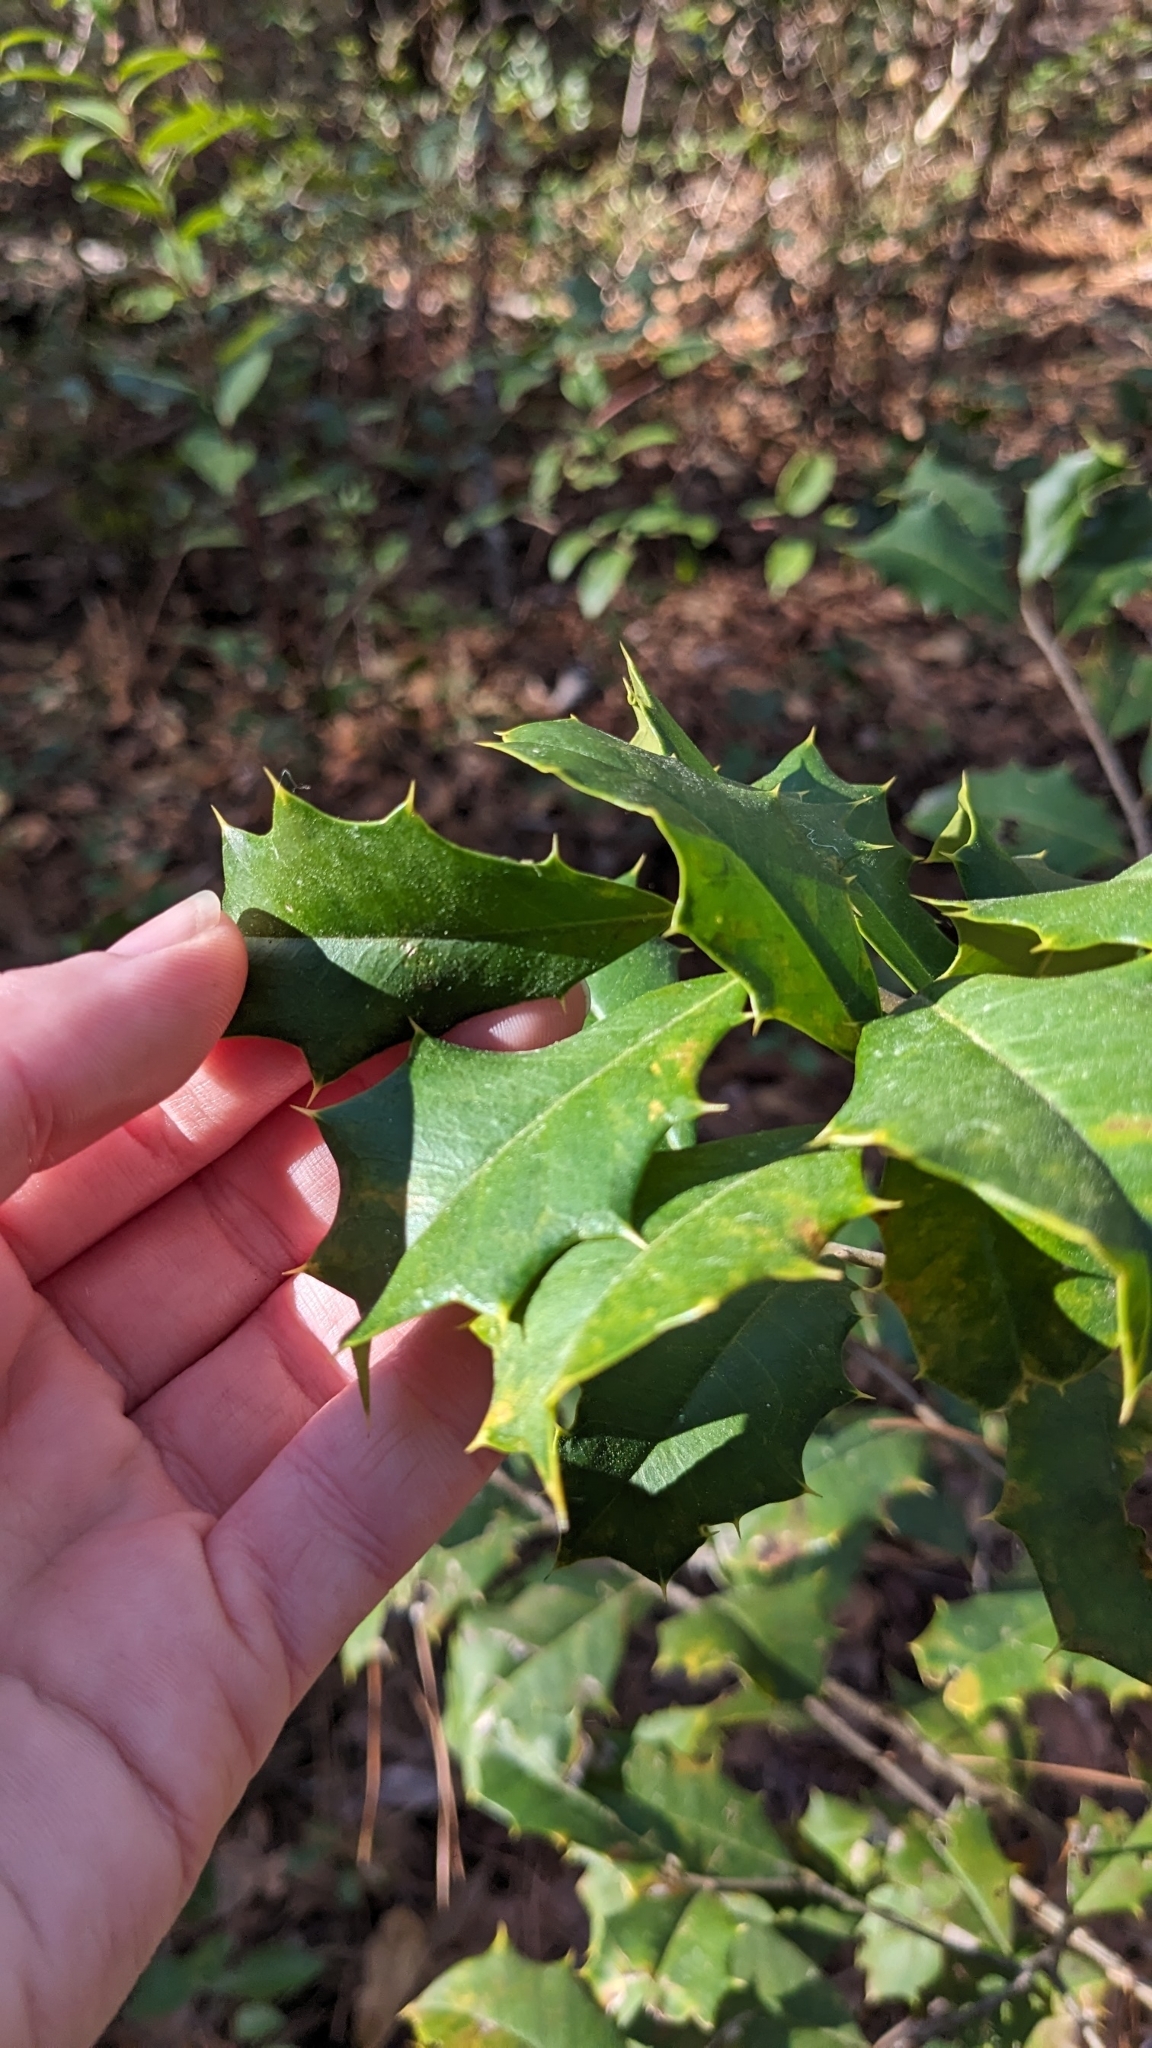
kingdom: Plantae
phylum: Tracheophyta
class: Magnoliopsida
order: Aquifoliales
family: Aquifoliaceae
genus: Ilex
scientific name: Ilex opaca
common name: American holly
